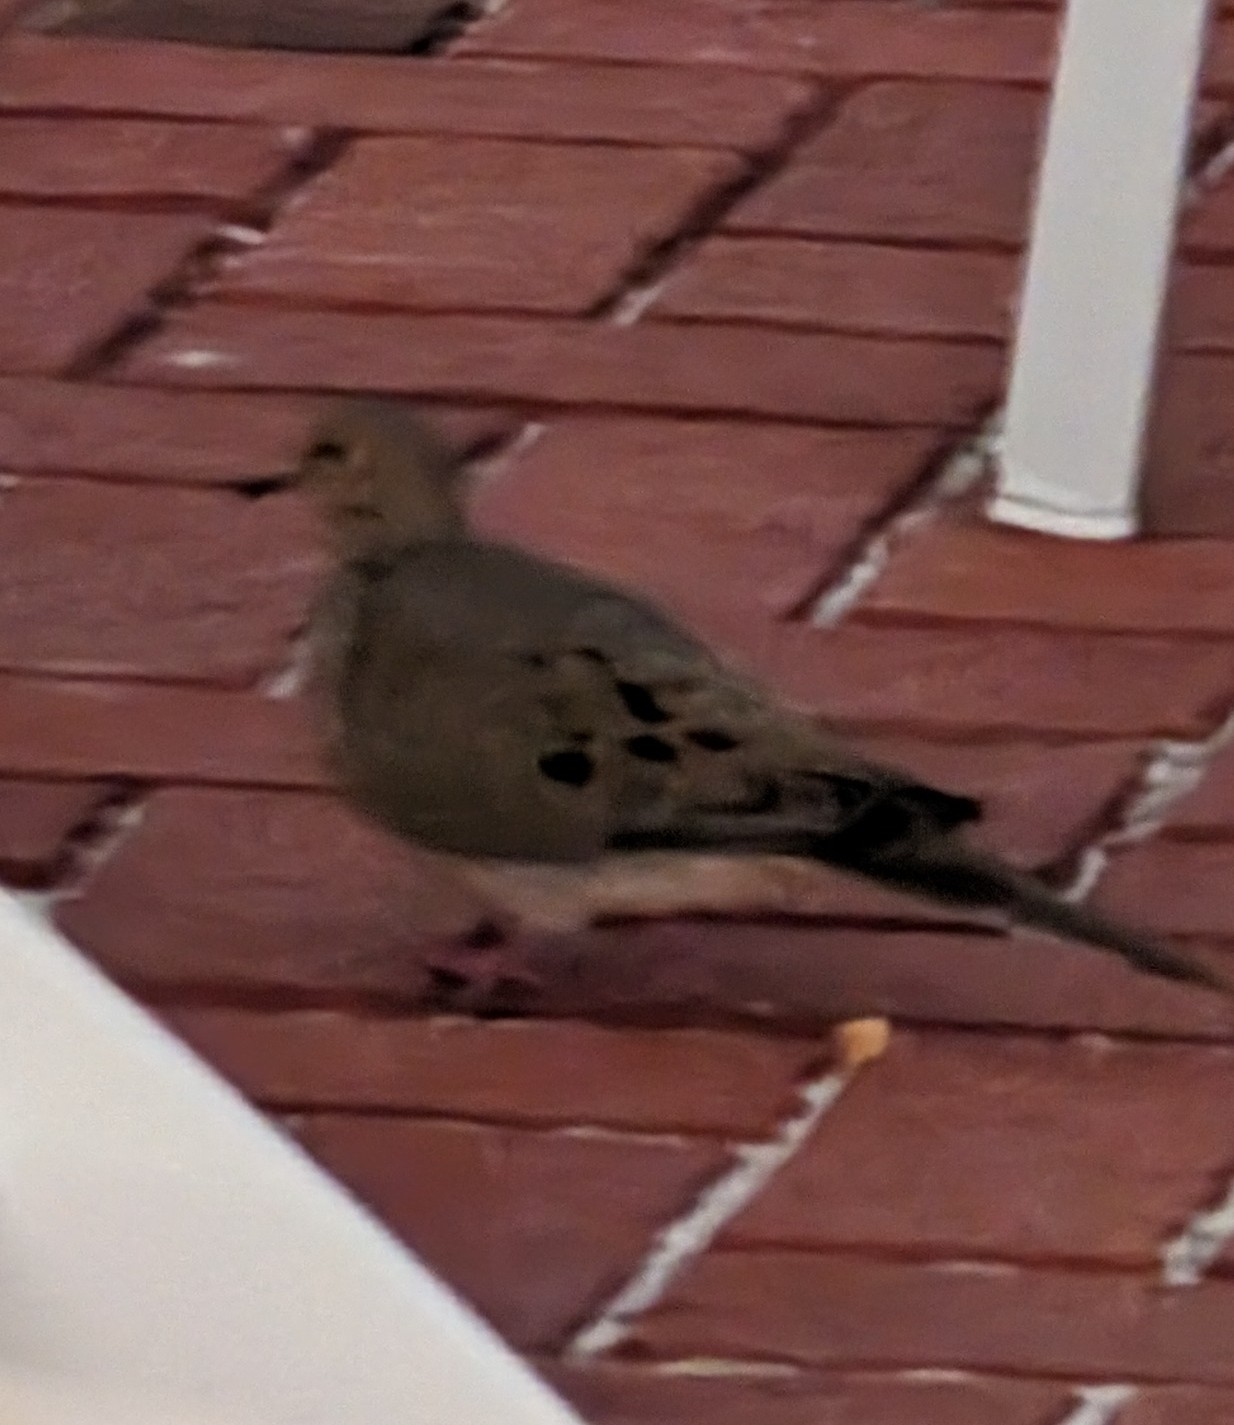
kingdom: Animalia
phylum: Chordata
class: Aves
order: Columbiformes
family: Columbidae
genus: Zenaida
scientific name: Zenaida macroura
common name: Mourning dove
